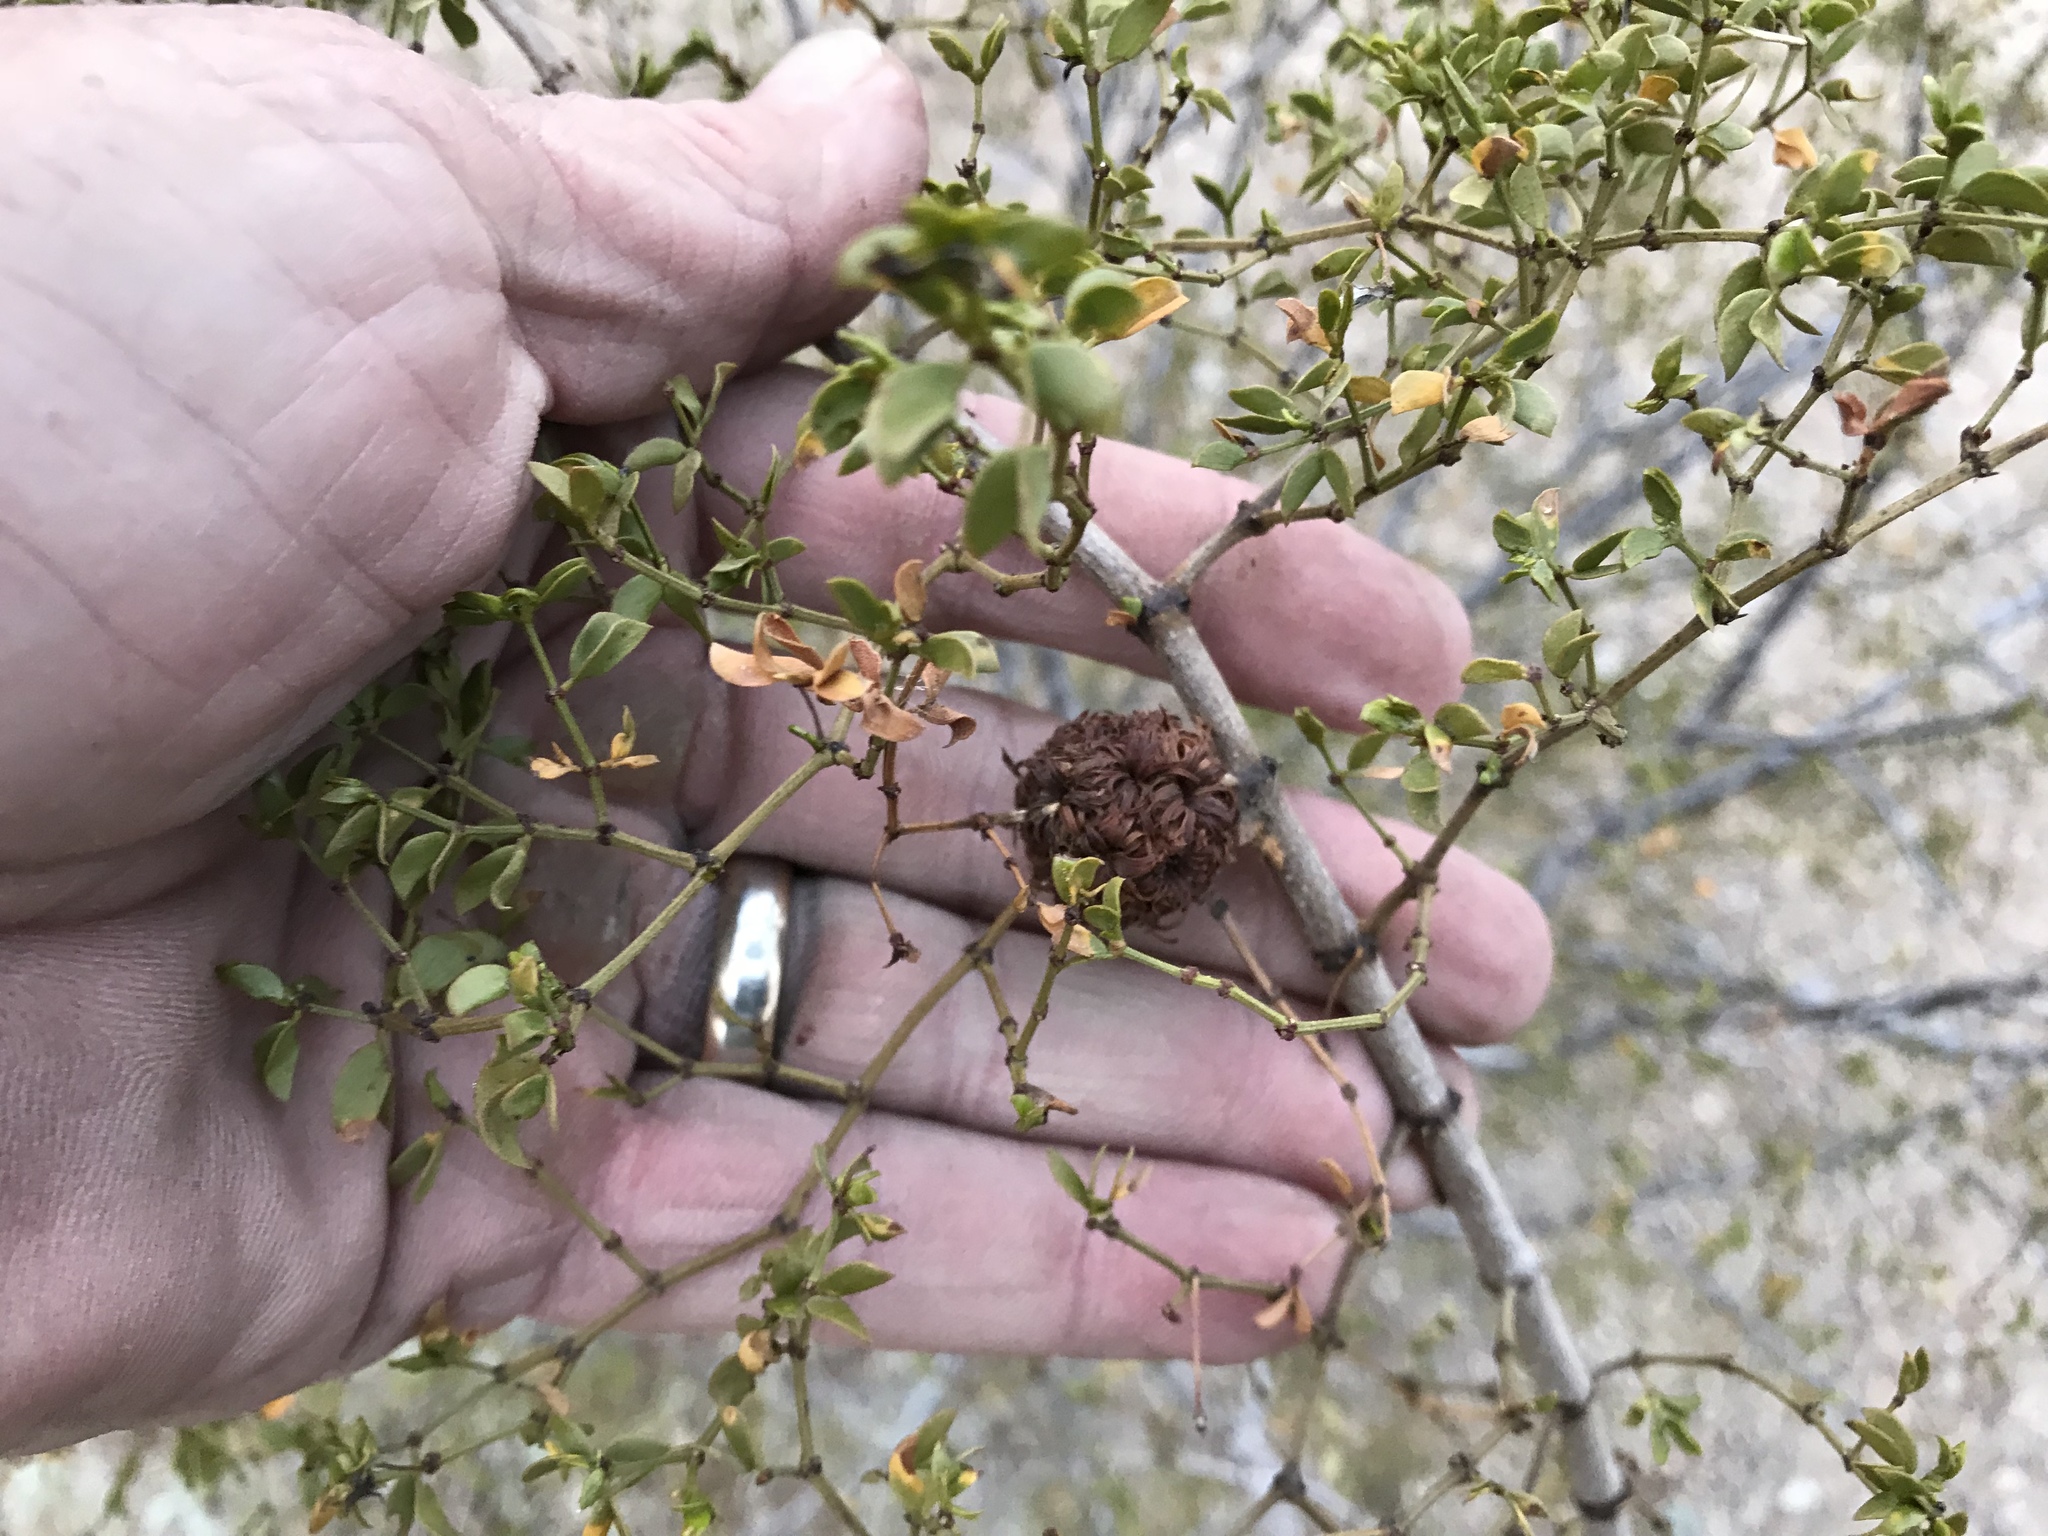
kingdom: Animalia
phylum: Arthropoda
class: Insecta
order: Diptera
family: Cecidomyiidae
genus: Asphondylia
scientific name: Asphondylia auripila
